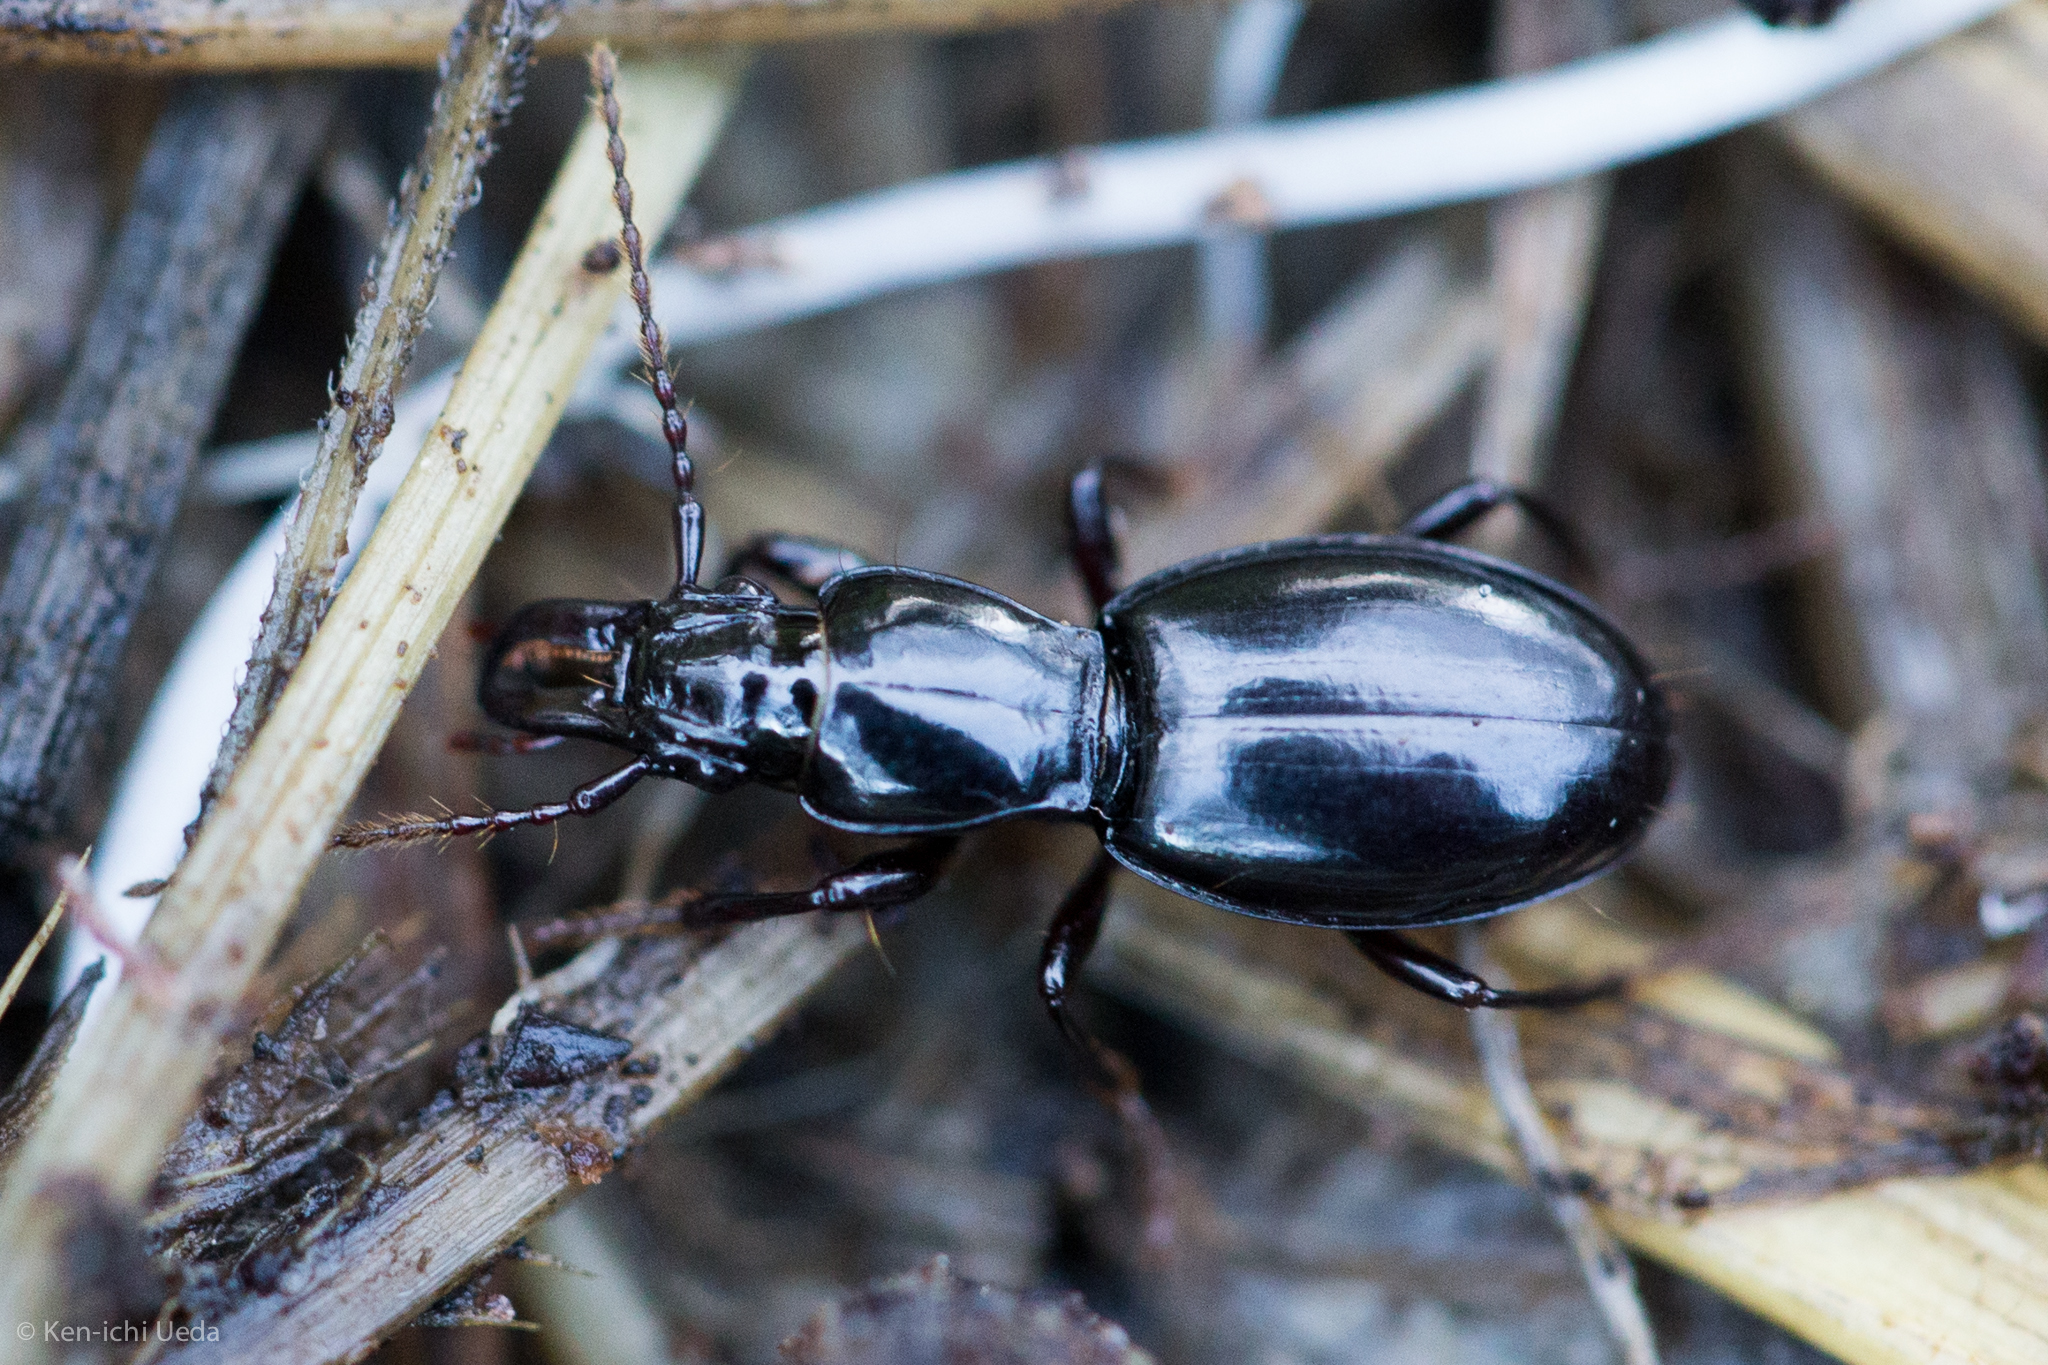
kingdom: Animalia
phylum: Arthropoda
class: Insecta
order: Coleoptera
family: Carabidae
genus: Promecognathus
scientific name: Promecognathus laevissimus
